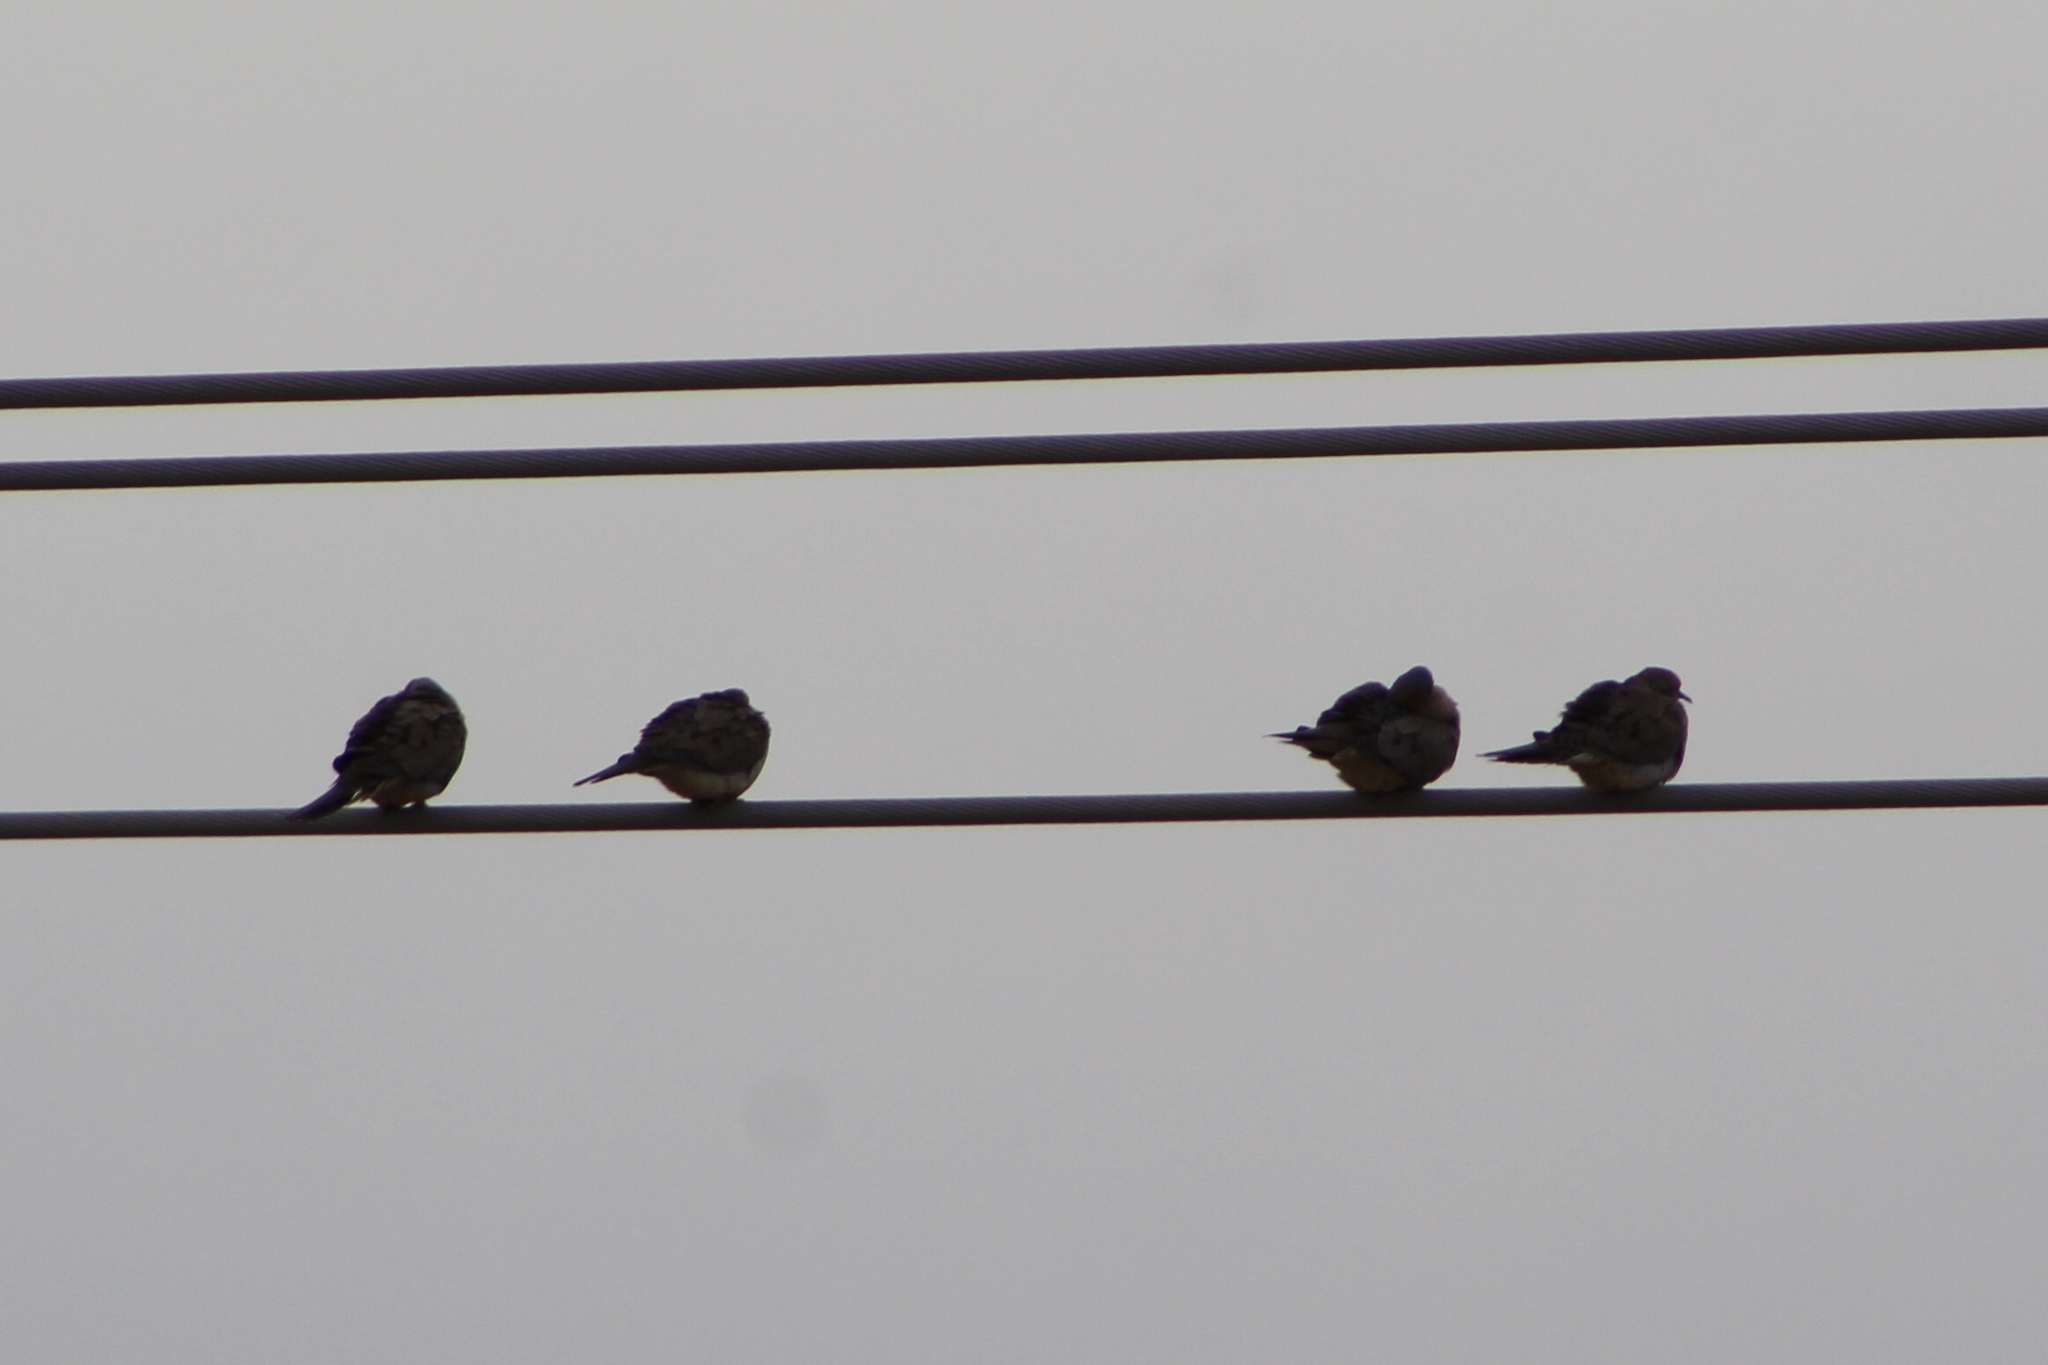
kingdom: Animalia
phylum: Chordata
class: Aves
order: Columbiformes
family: Columbidae
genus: Zenaida
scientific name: Zenaida macroura
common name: Mourning dove
